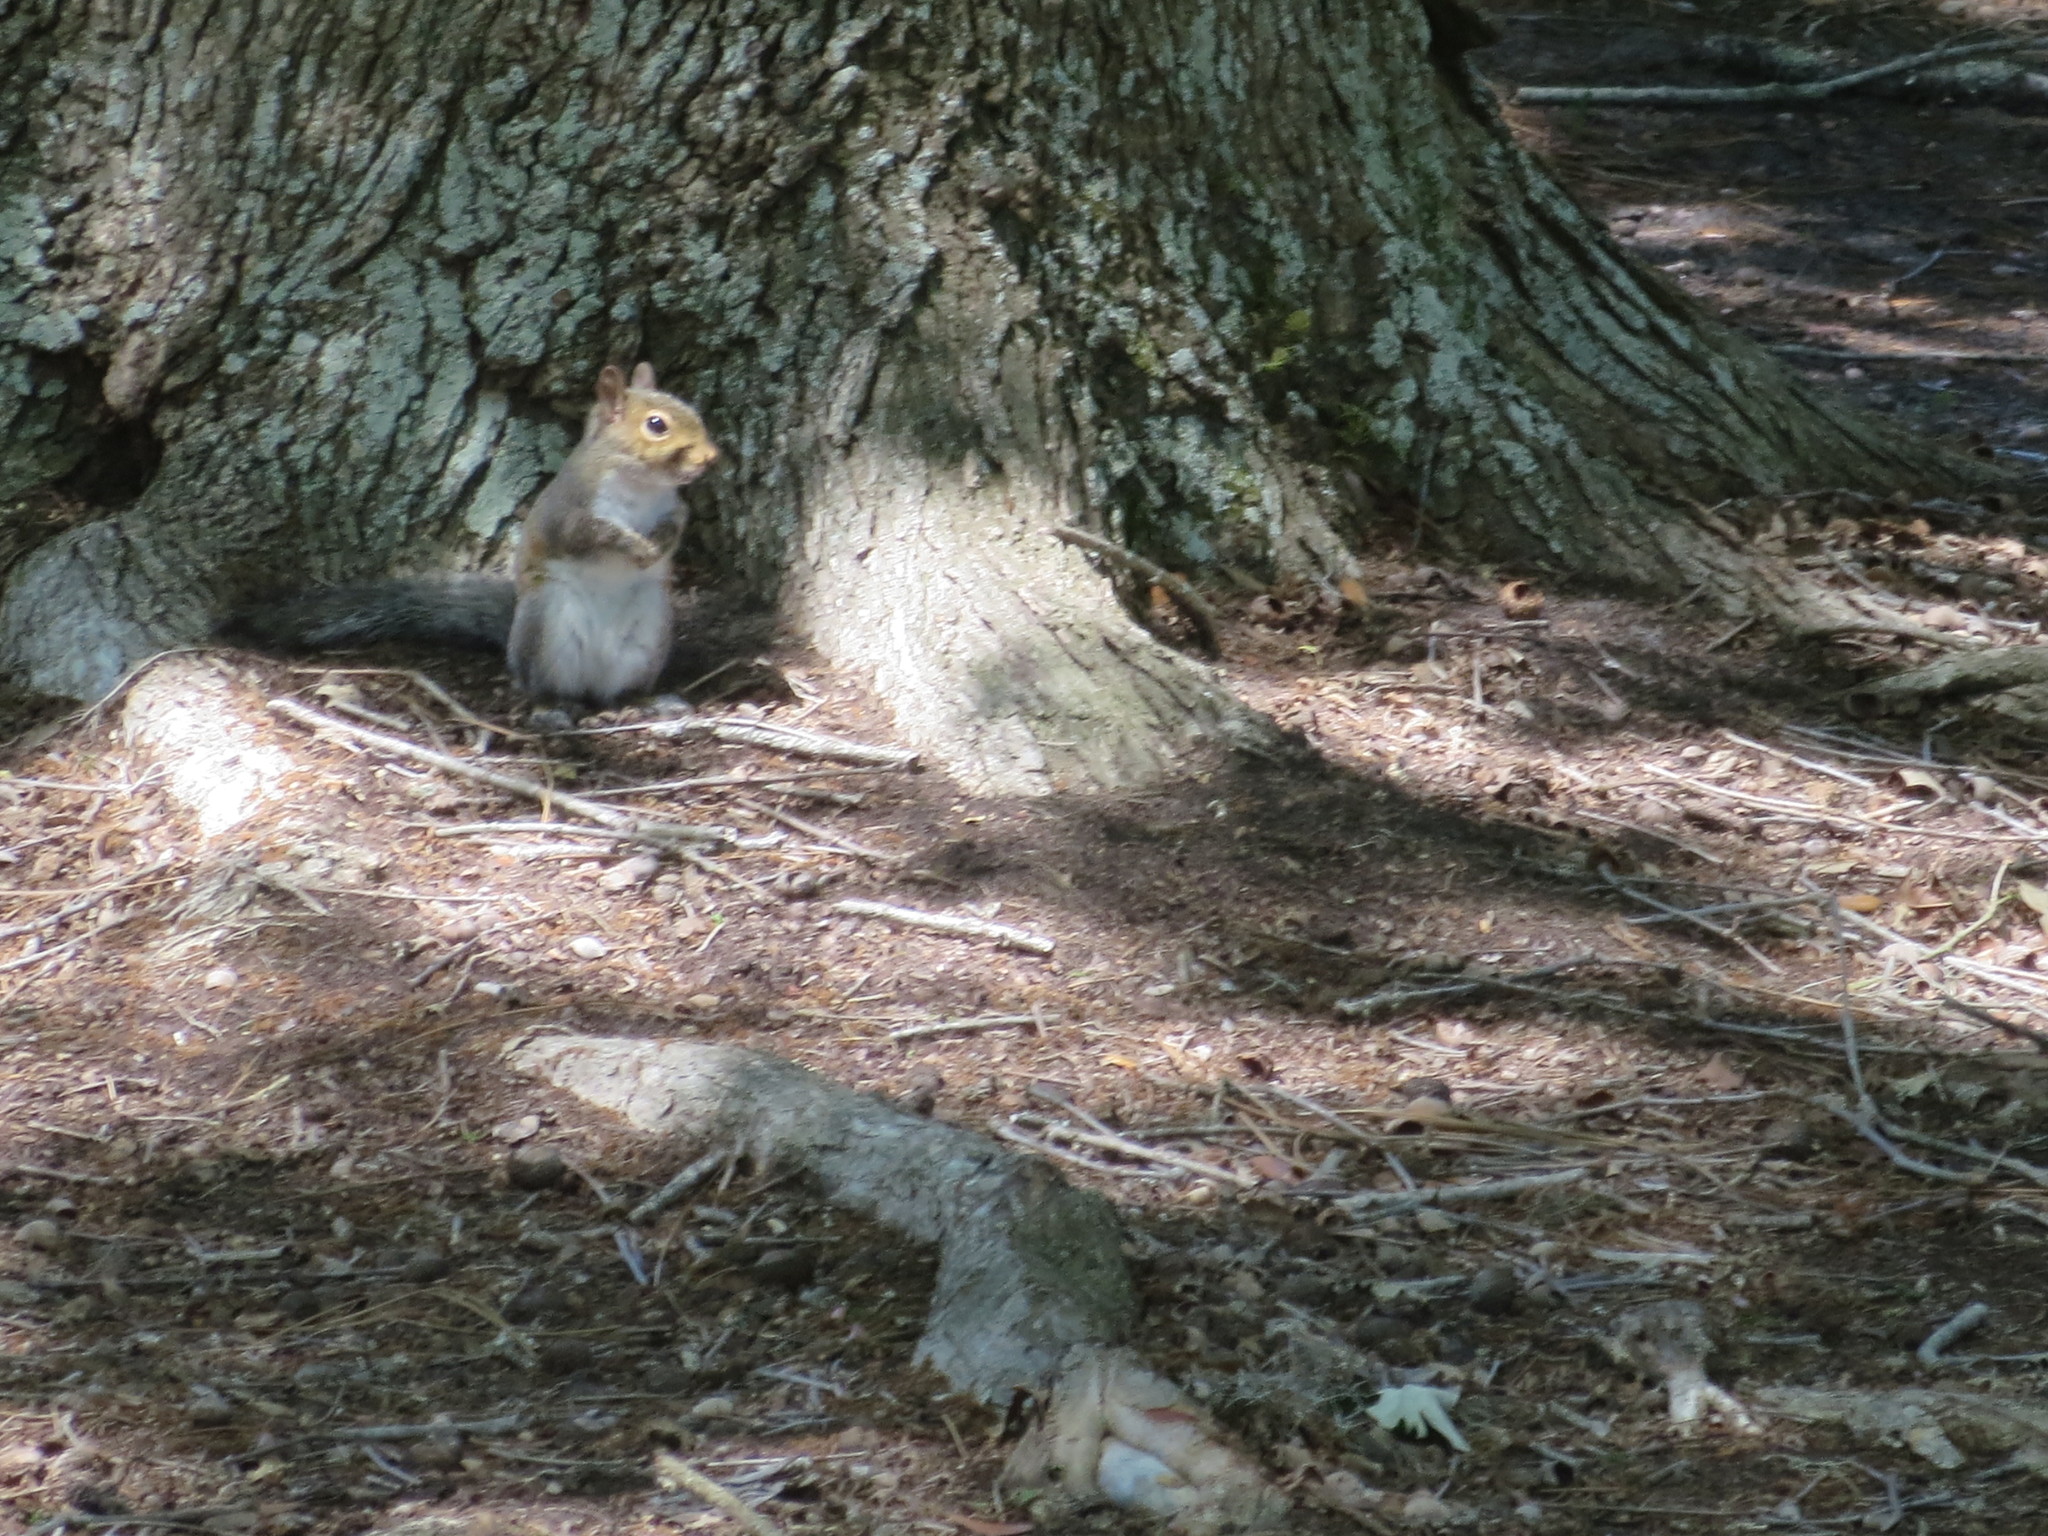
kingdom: Animalia
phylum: Chordata
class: Mammalia
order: Rodentia
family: Sciuridae
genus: Sciurus
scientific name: Sciurus carolinensis
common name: Eastern gray squirrel
